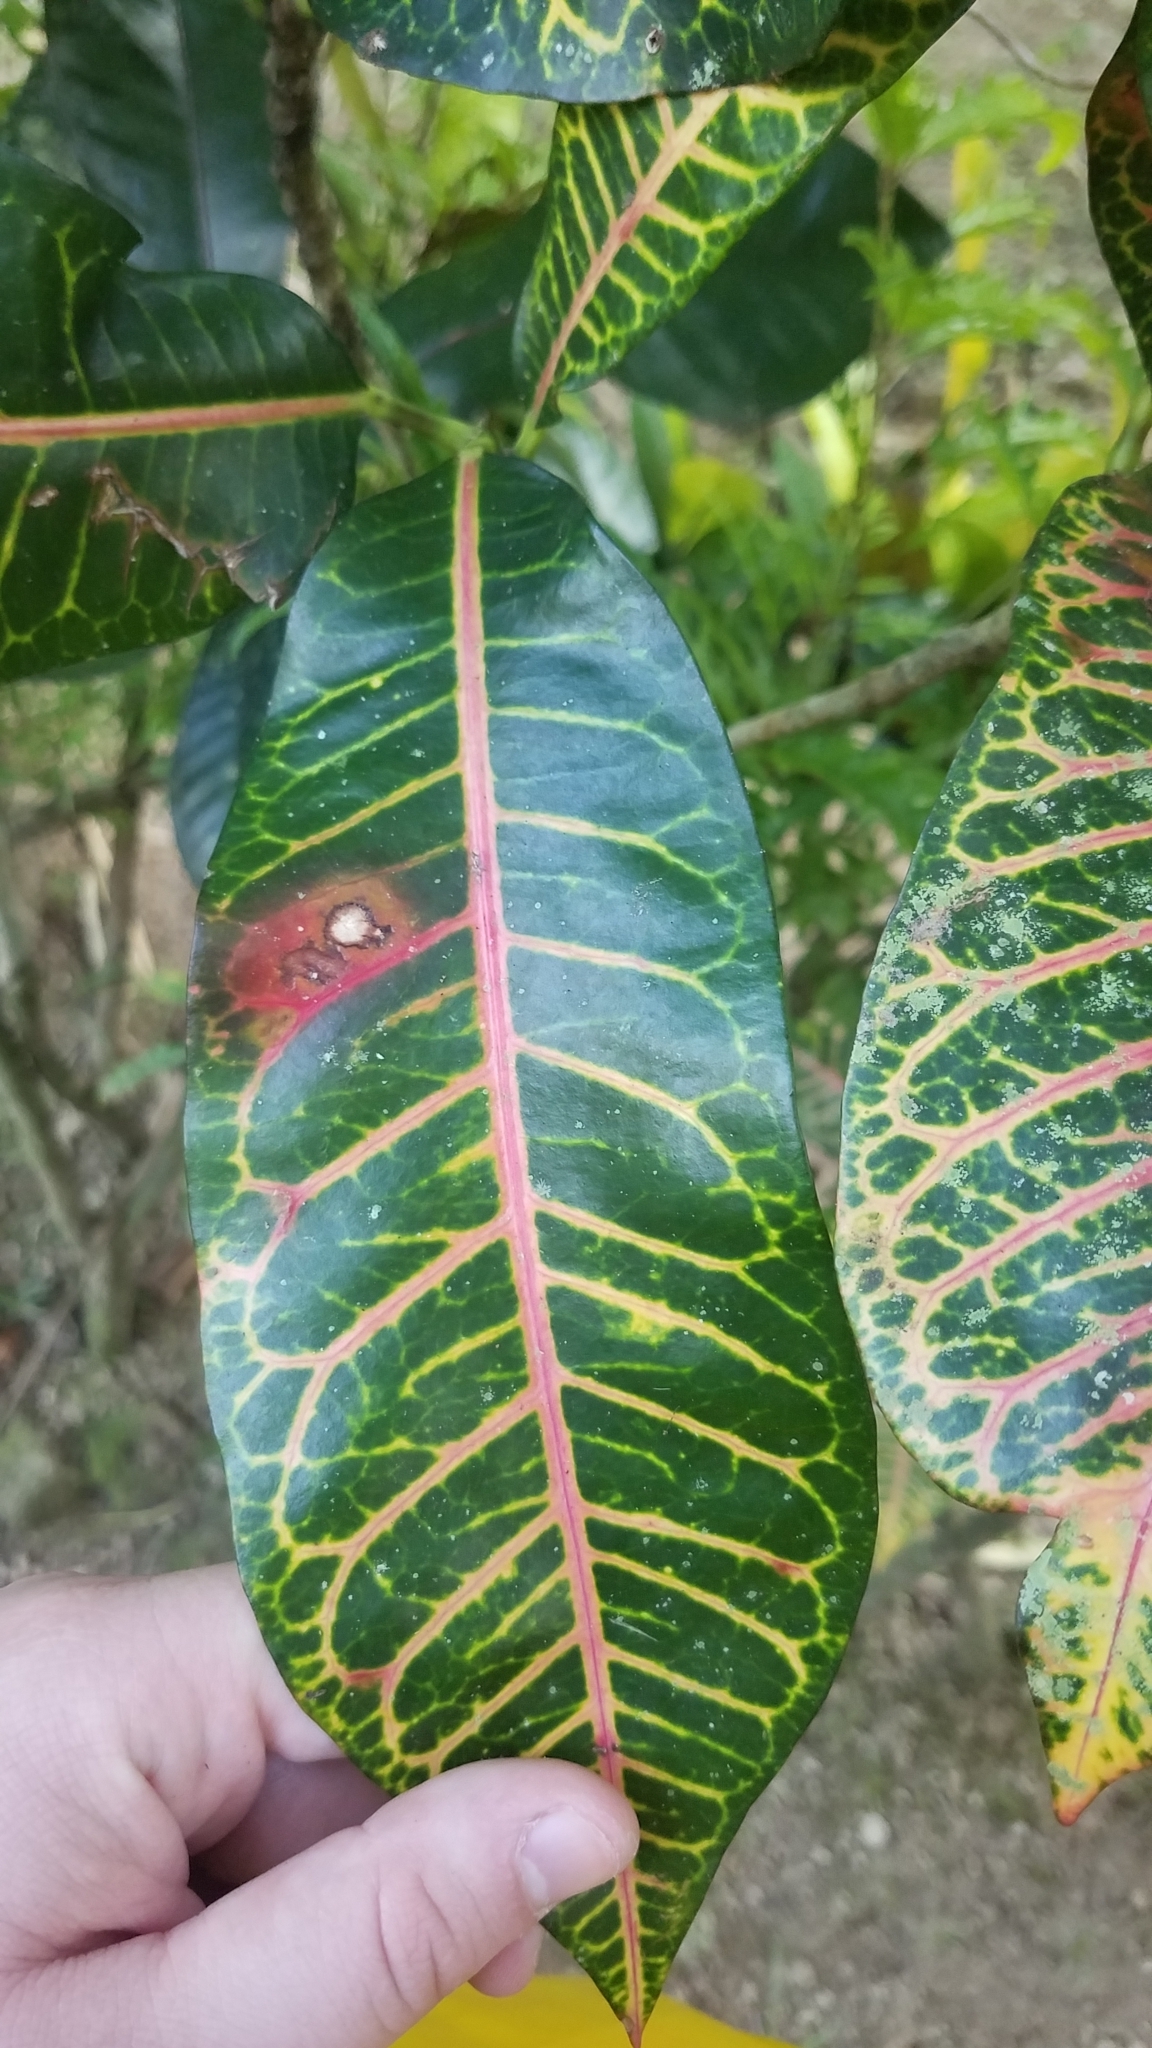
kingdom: Plantae
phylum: Tracheophyta
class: Magnoliopsida
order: Malpighiales
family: Euphorbiaceae
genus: Codiaeum
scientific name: Codiaeum variegatum
